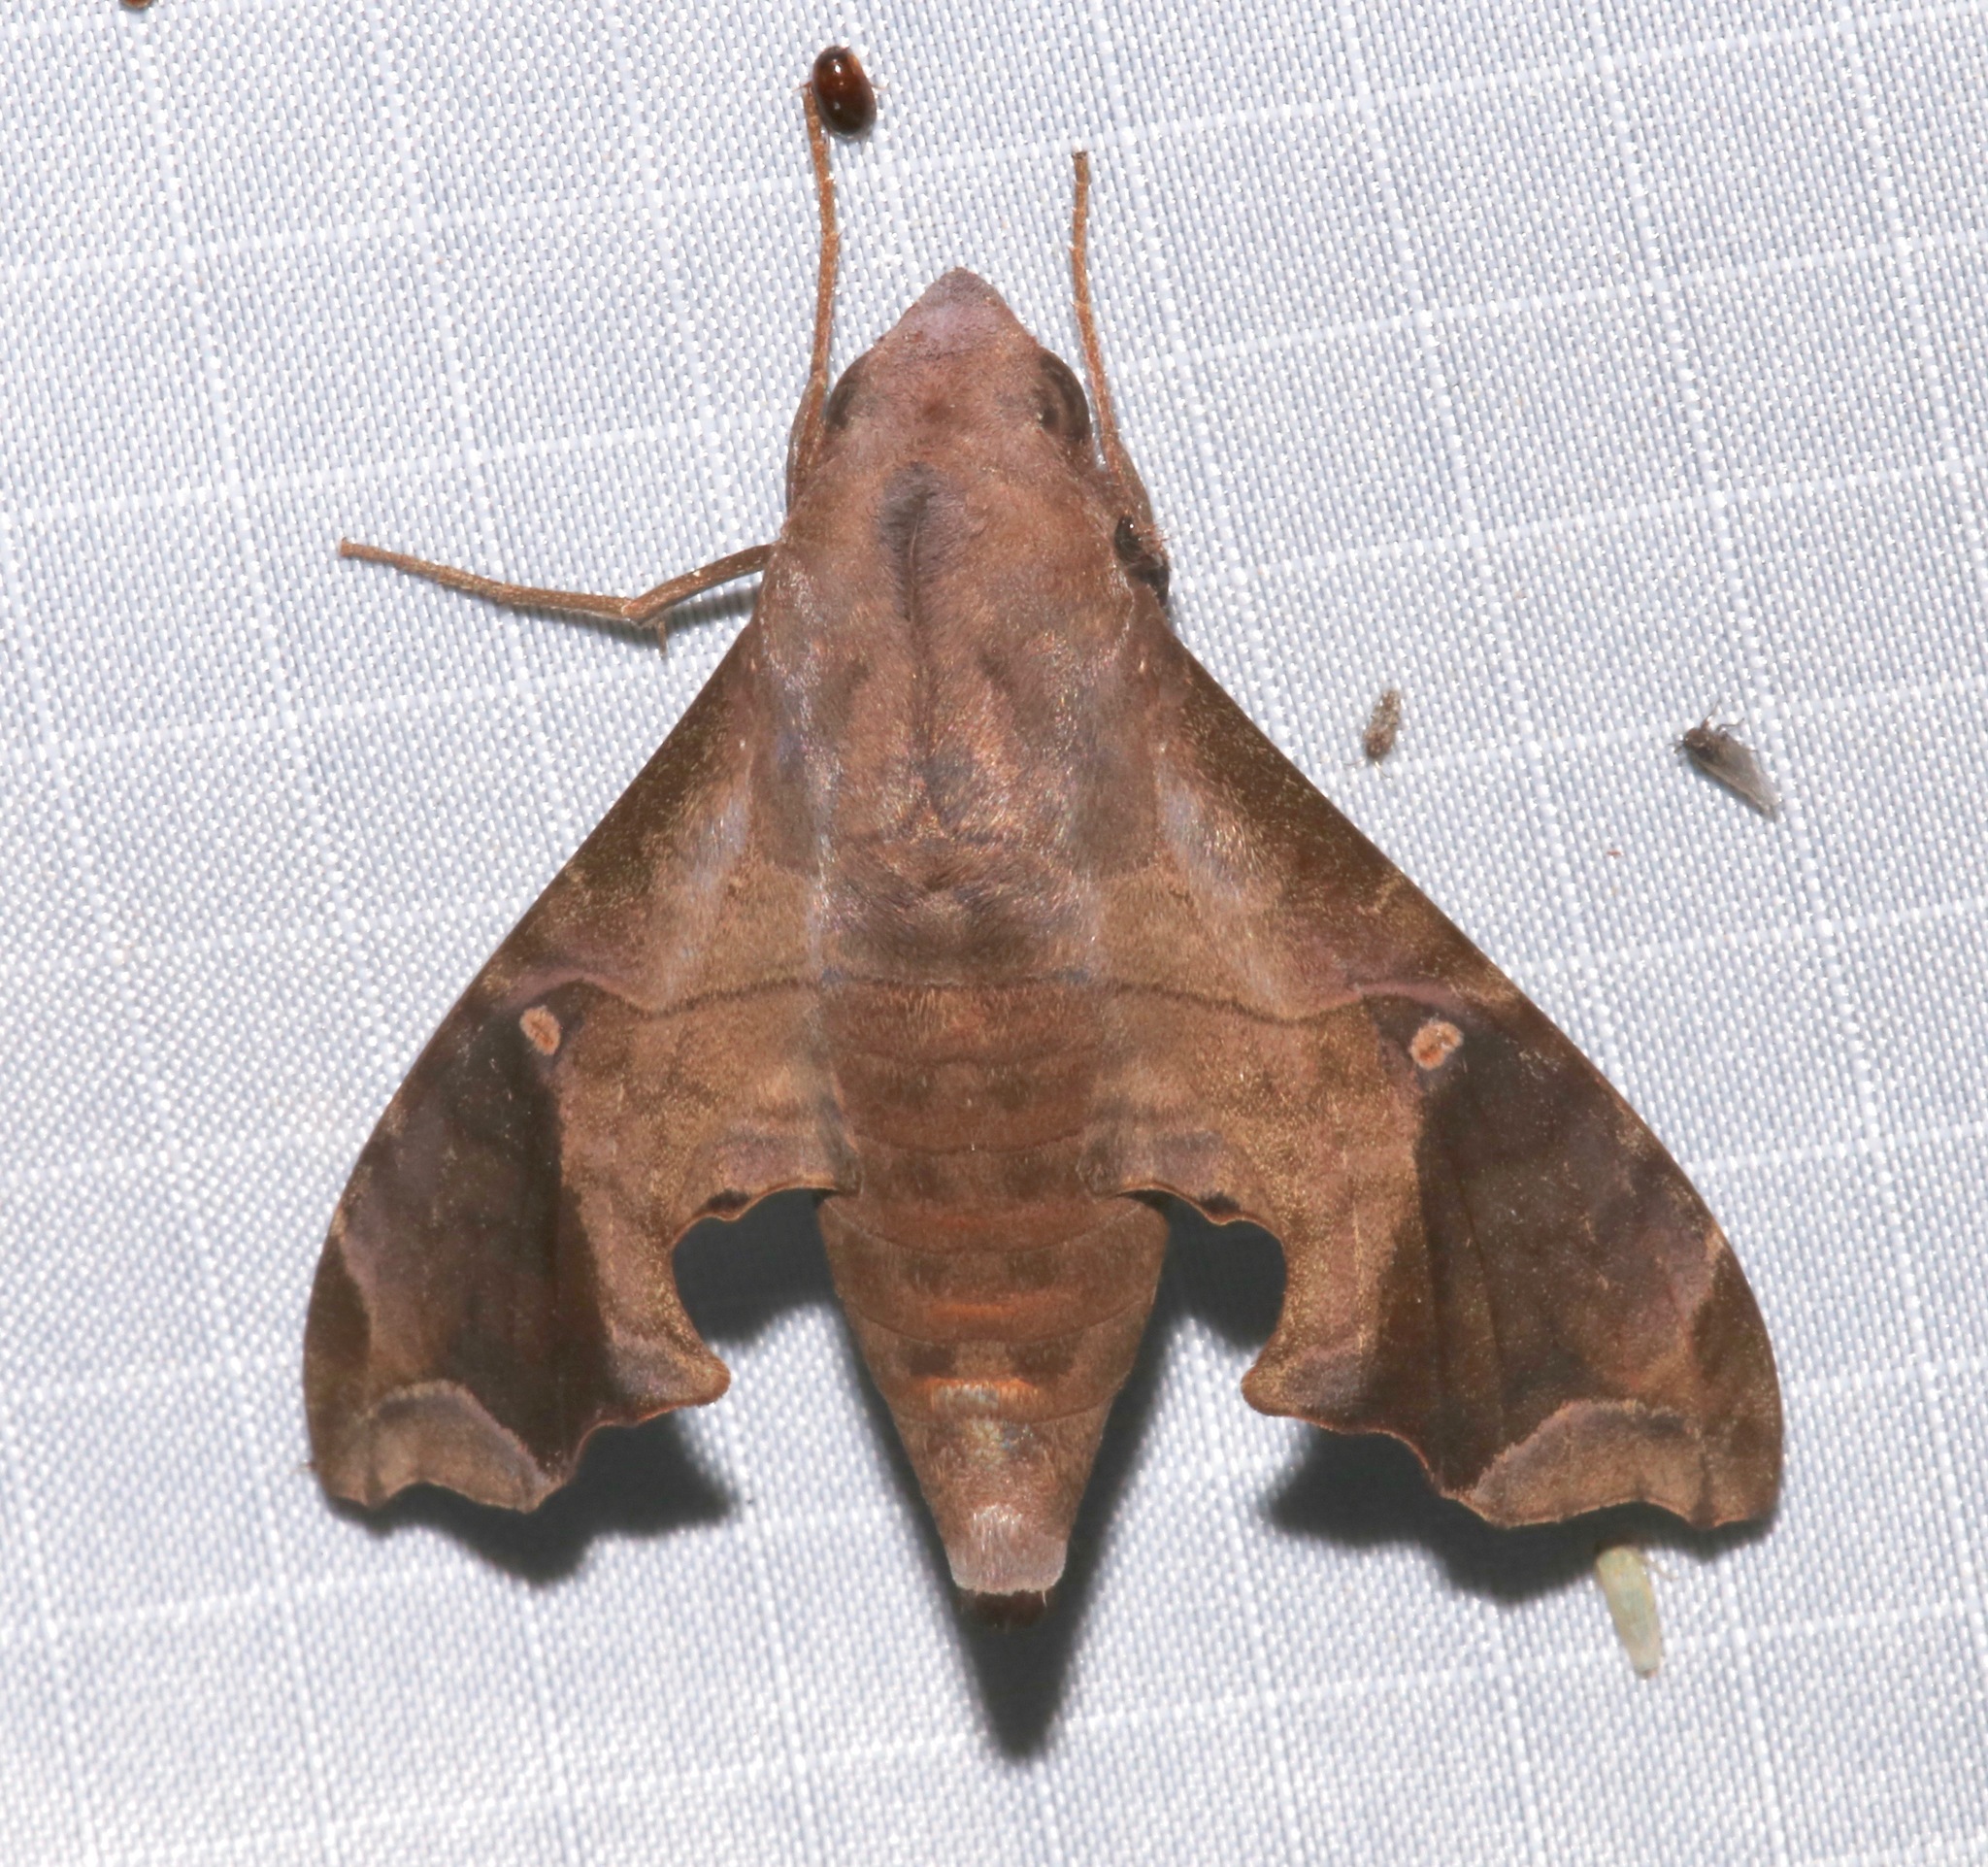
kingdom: Animalia
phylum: Arthropoda
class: Insecta
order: Lepidoptera
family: Sphingidae
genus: Enyo
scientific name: Enyo lugubris
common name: Mournful sphinx
